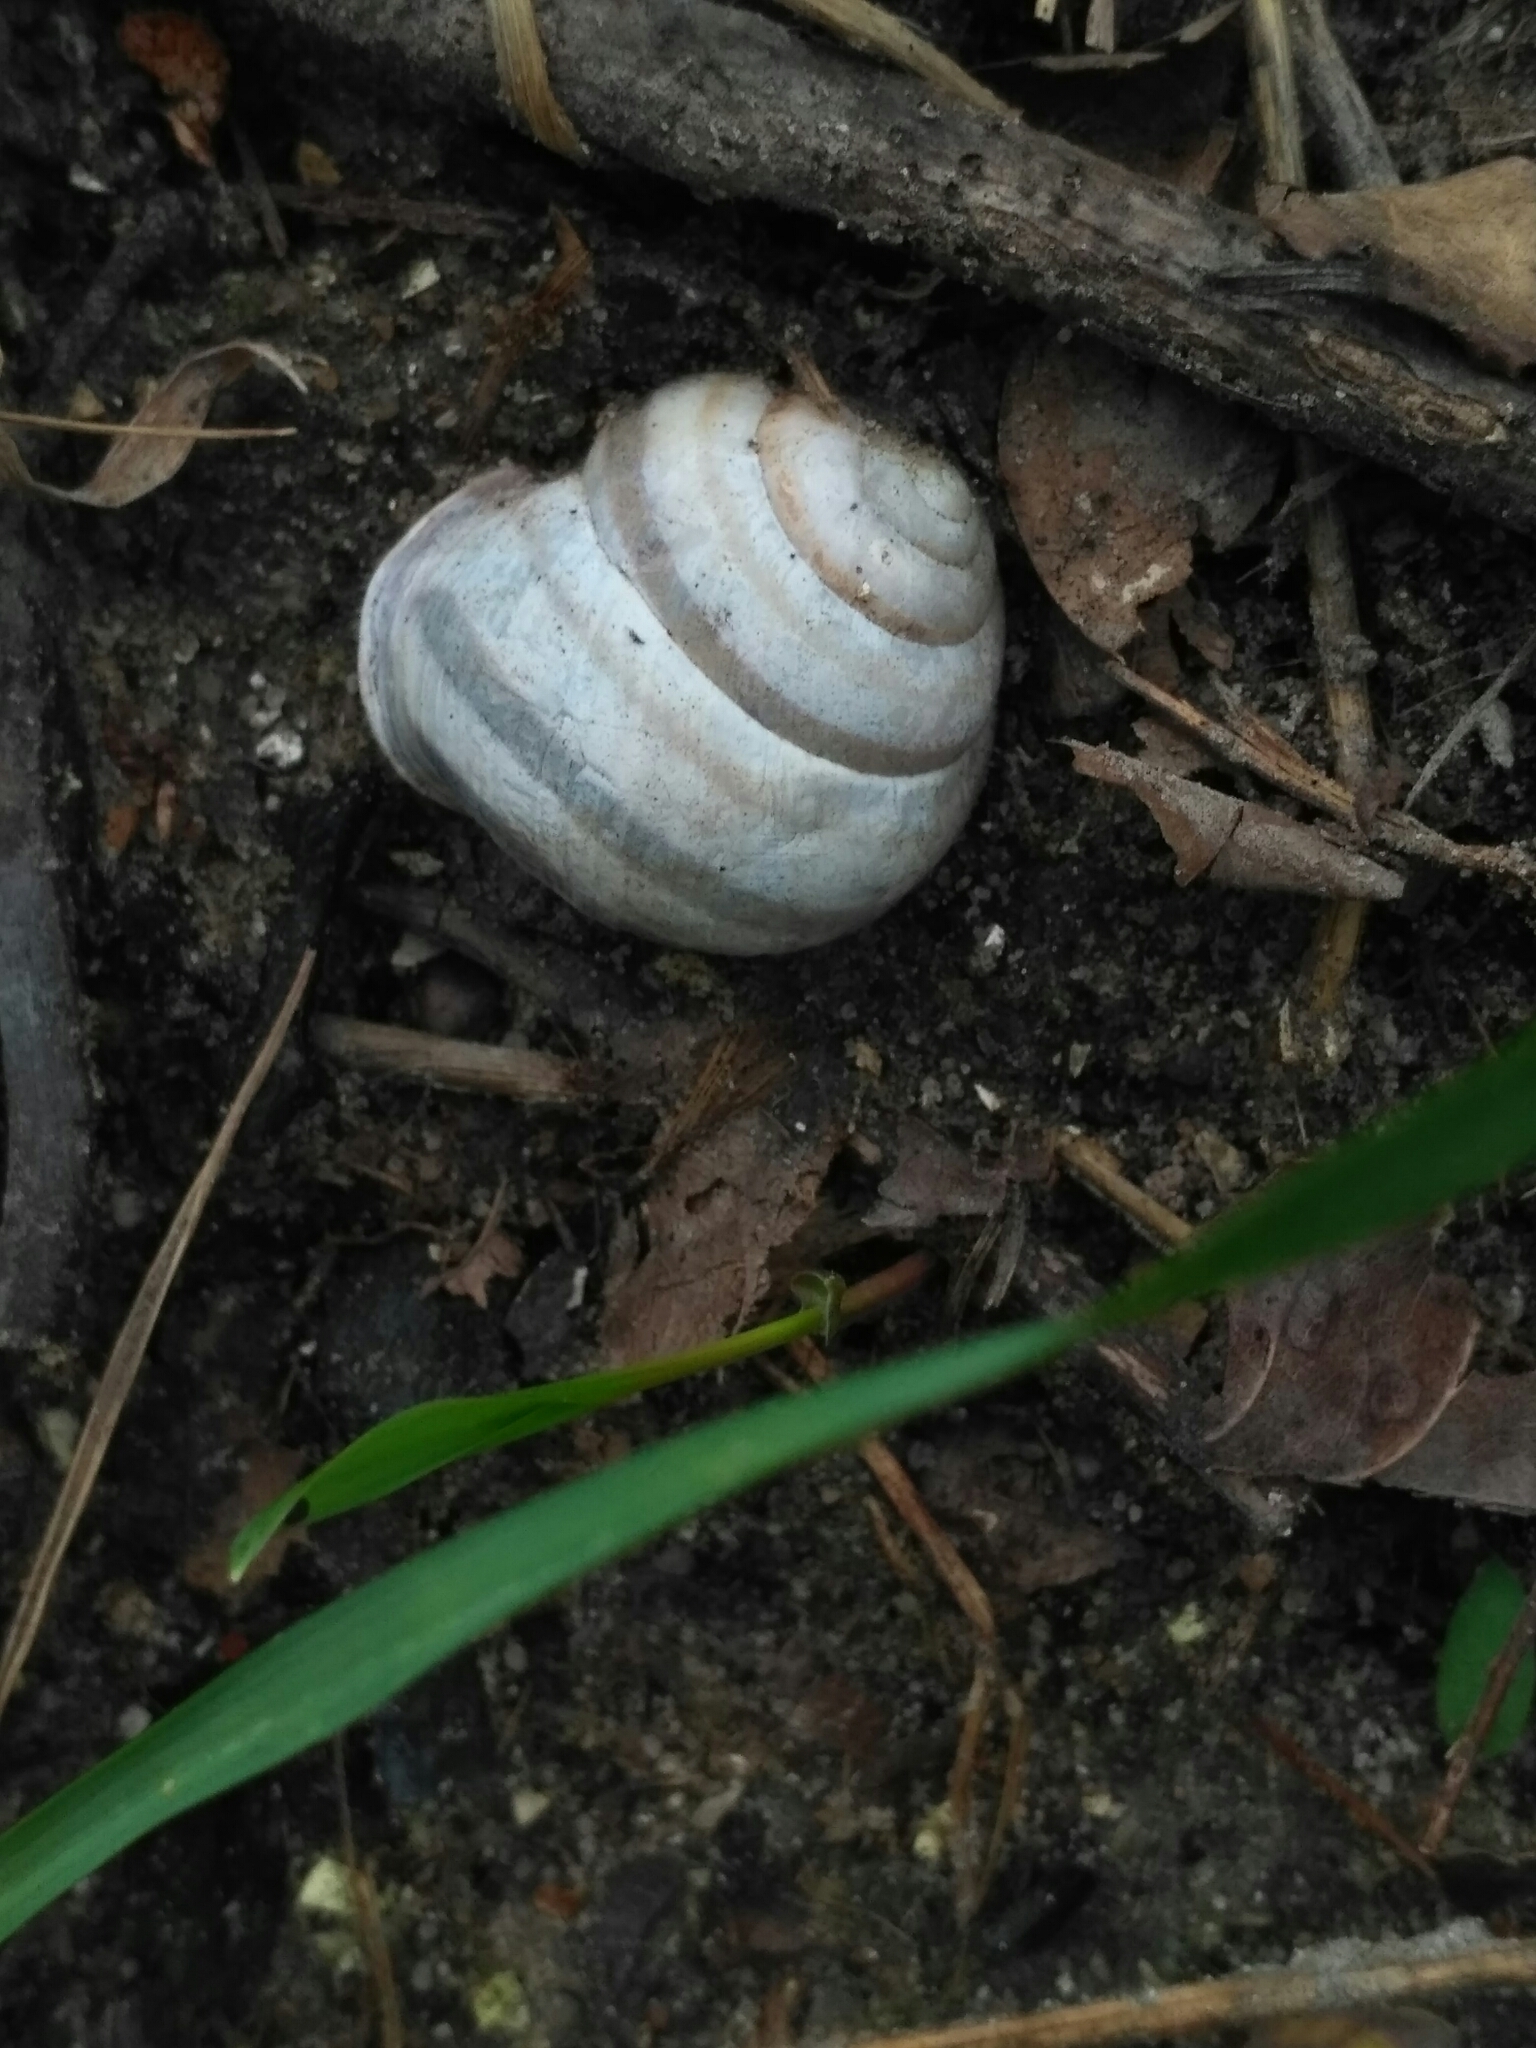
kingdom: Animalia
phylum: Mollusca
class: Gastropoda
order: Stylommatophora
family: Helicidae
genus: Caucasotachea
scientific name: Caucasotachea vindobonensis
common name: European helicid land snail
